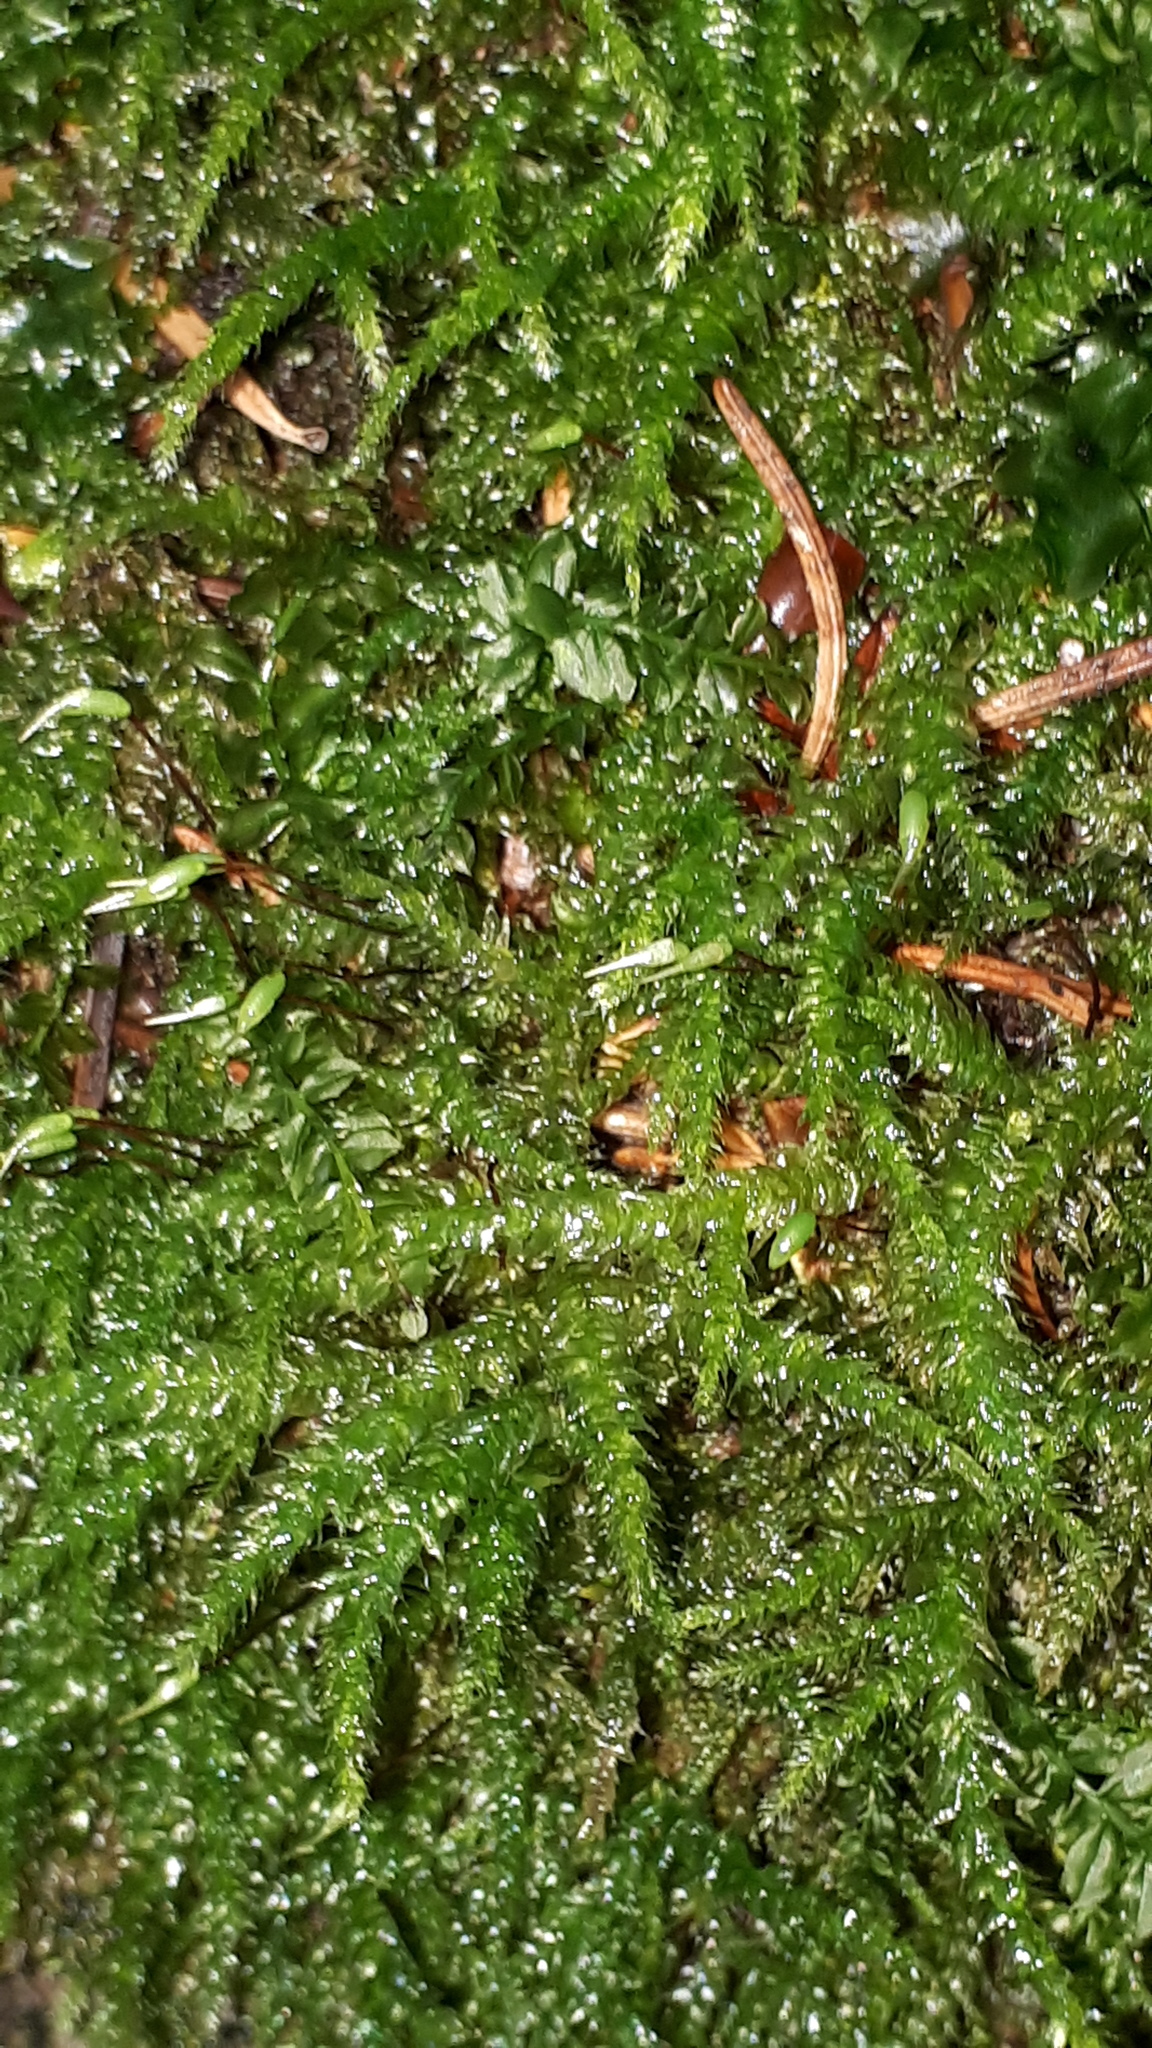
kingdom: Plantae
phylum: Bryophyta
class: Bryopsida
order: Hypnales
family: Brachytheciaceae
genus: Rhynchostegium
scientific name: Rhynchostegium murale
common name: Wall feather-moss
